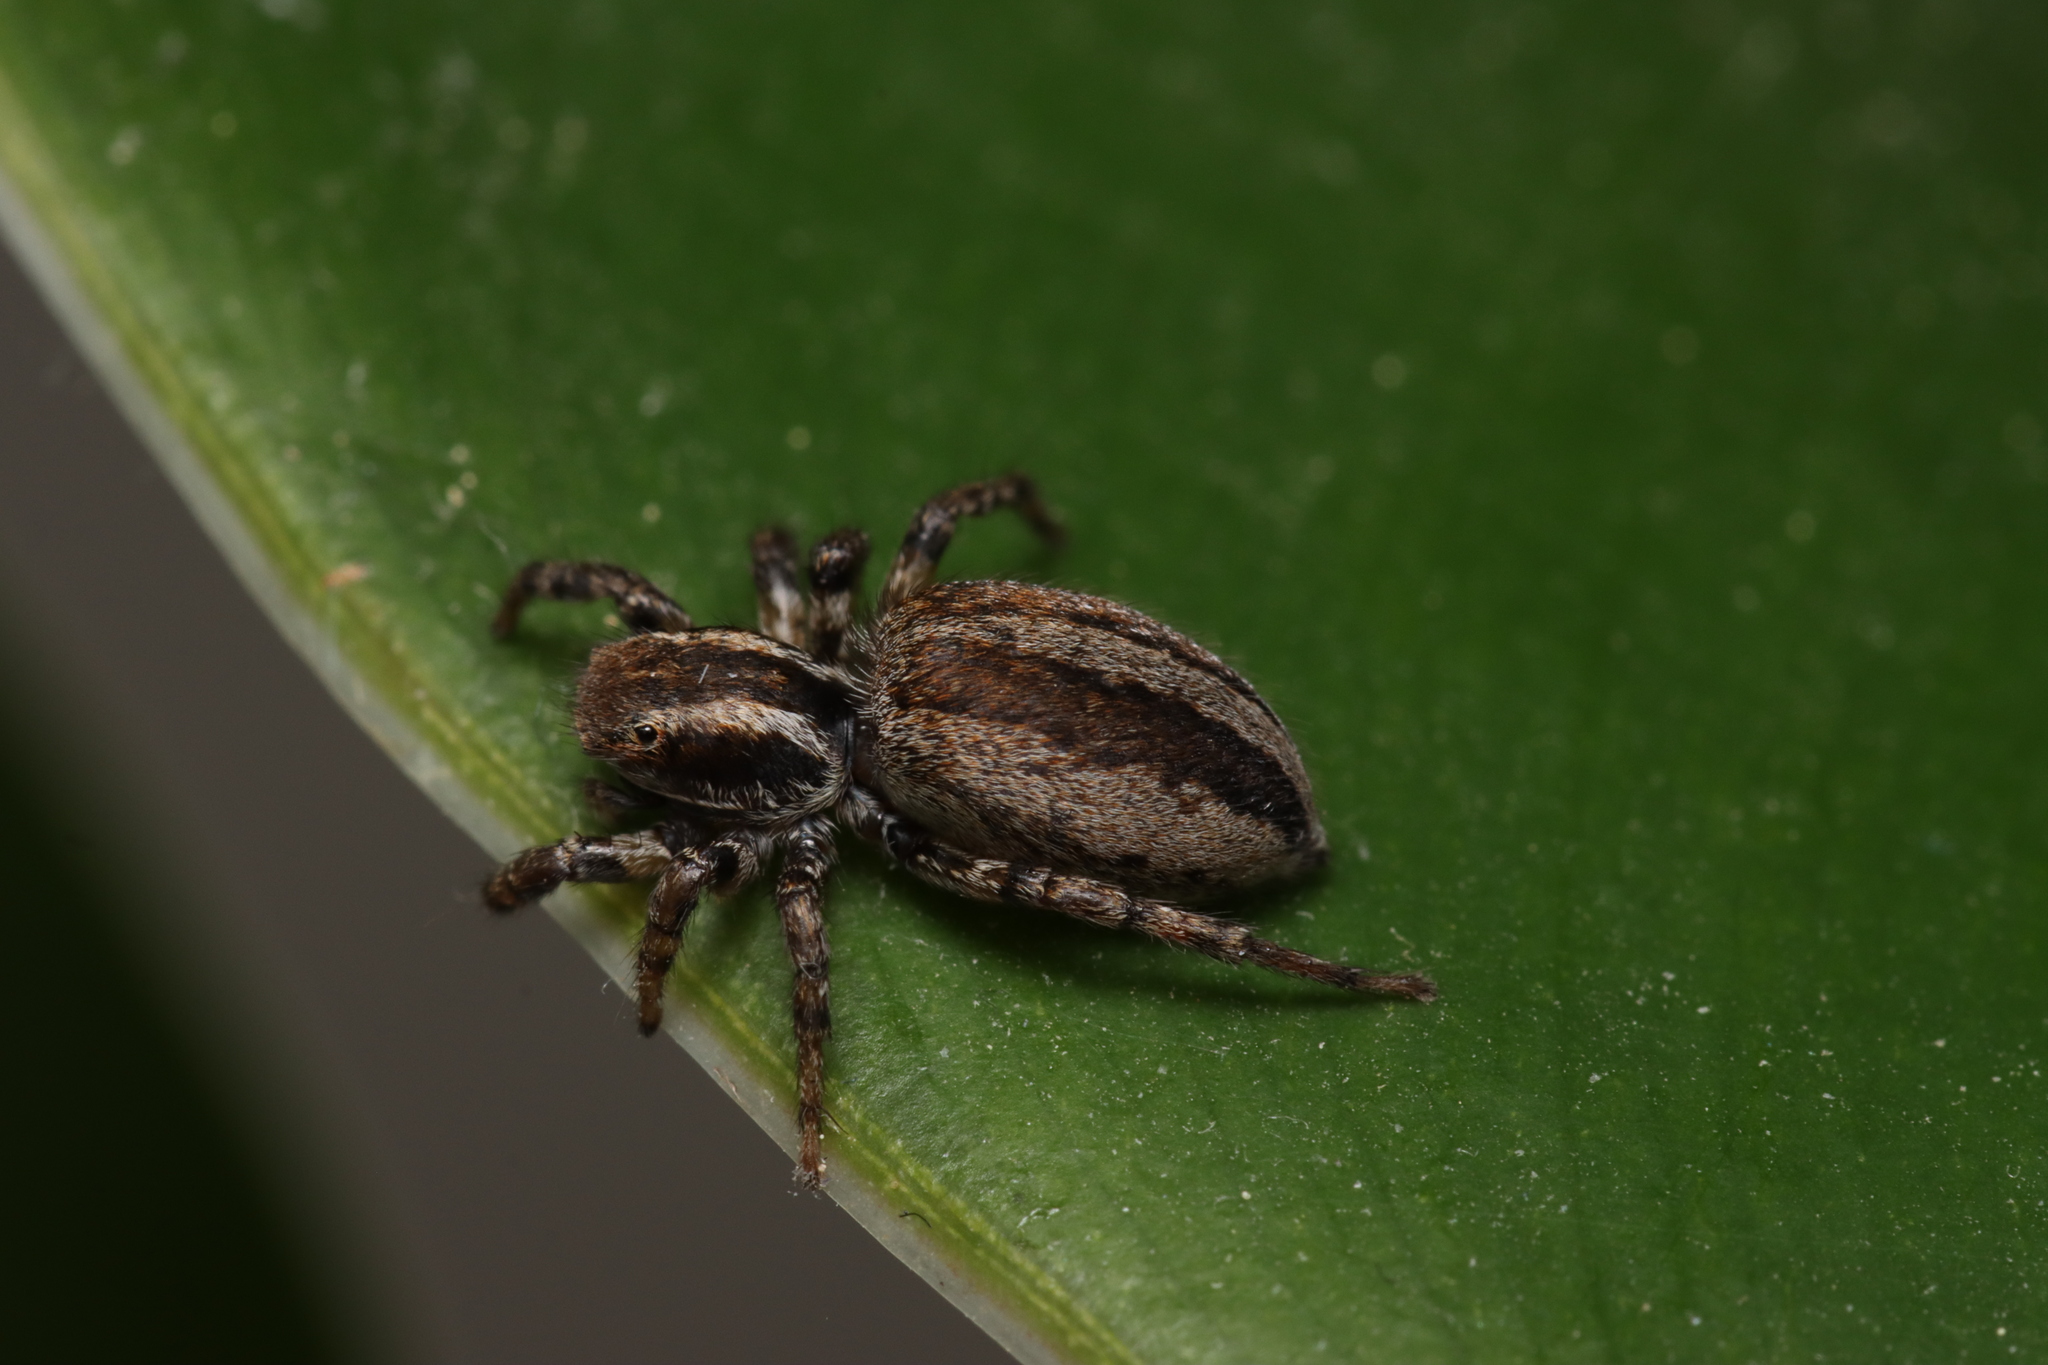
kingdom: Animalia
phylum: Arthropoda
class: Arachnida
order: Araneae
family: Salticidae
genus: Phlegra
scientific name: Phlegra fasciata
